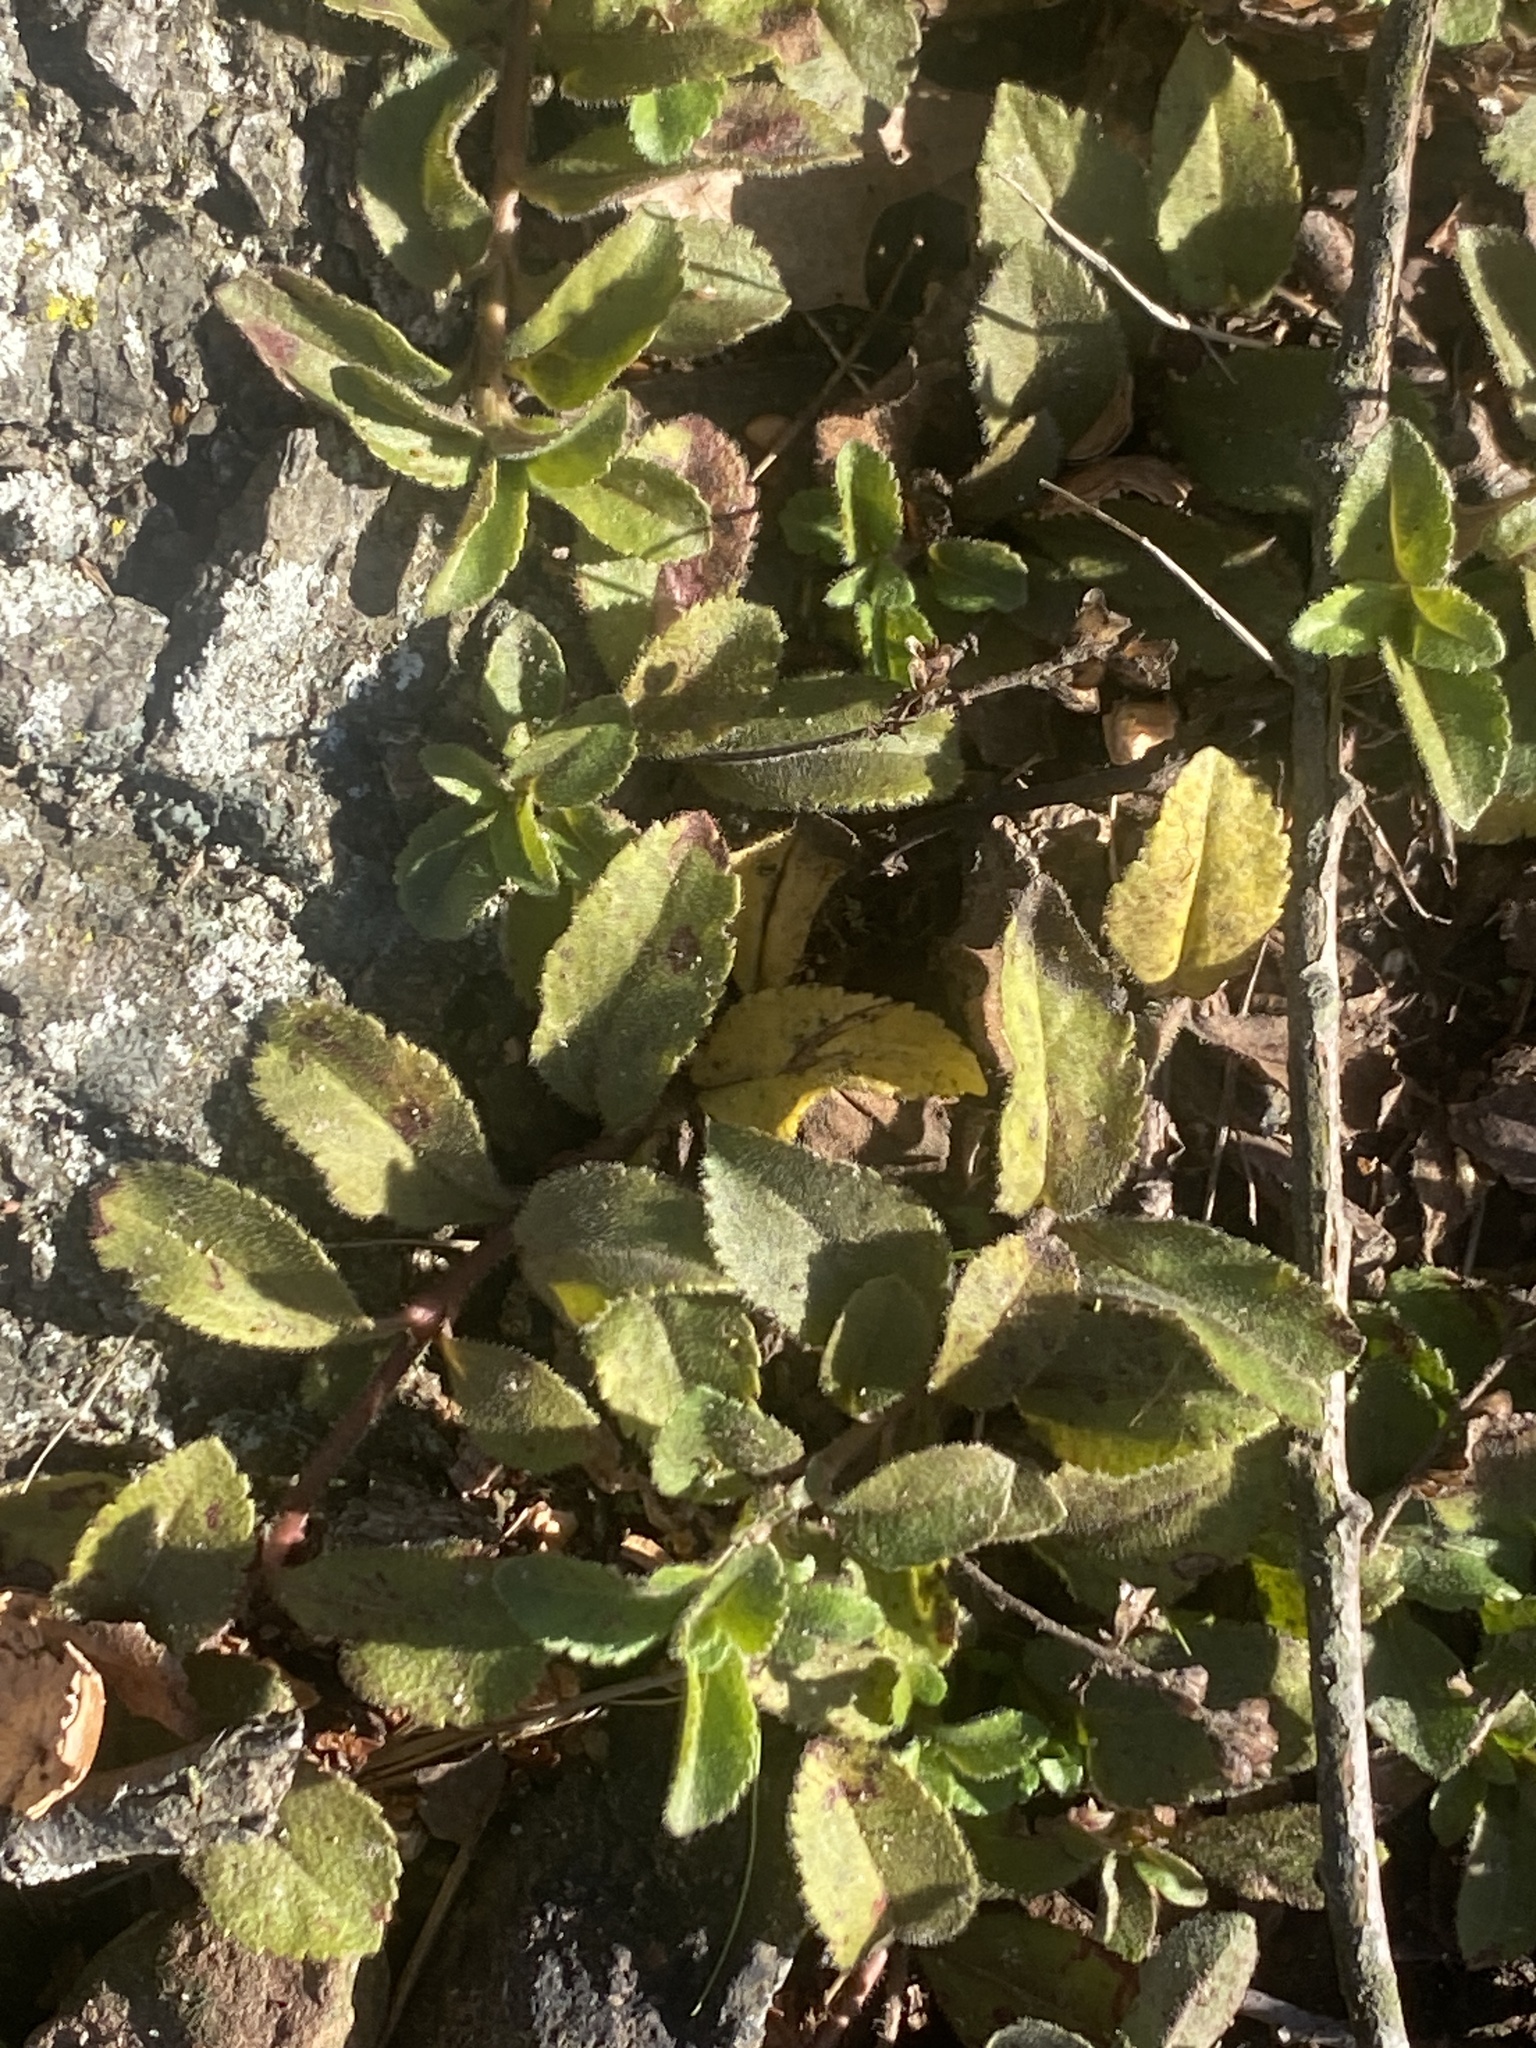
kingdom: Plantae
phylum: Tracheophyta
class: Magnoliopsida
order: Lamiales
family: Plantaginaceae
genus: Veronica
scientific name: Veronica officinalis
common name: Common speedwell
